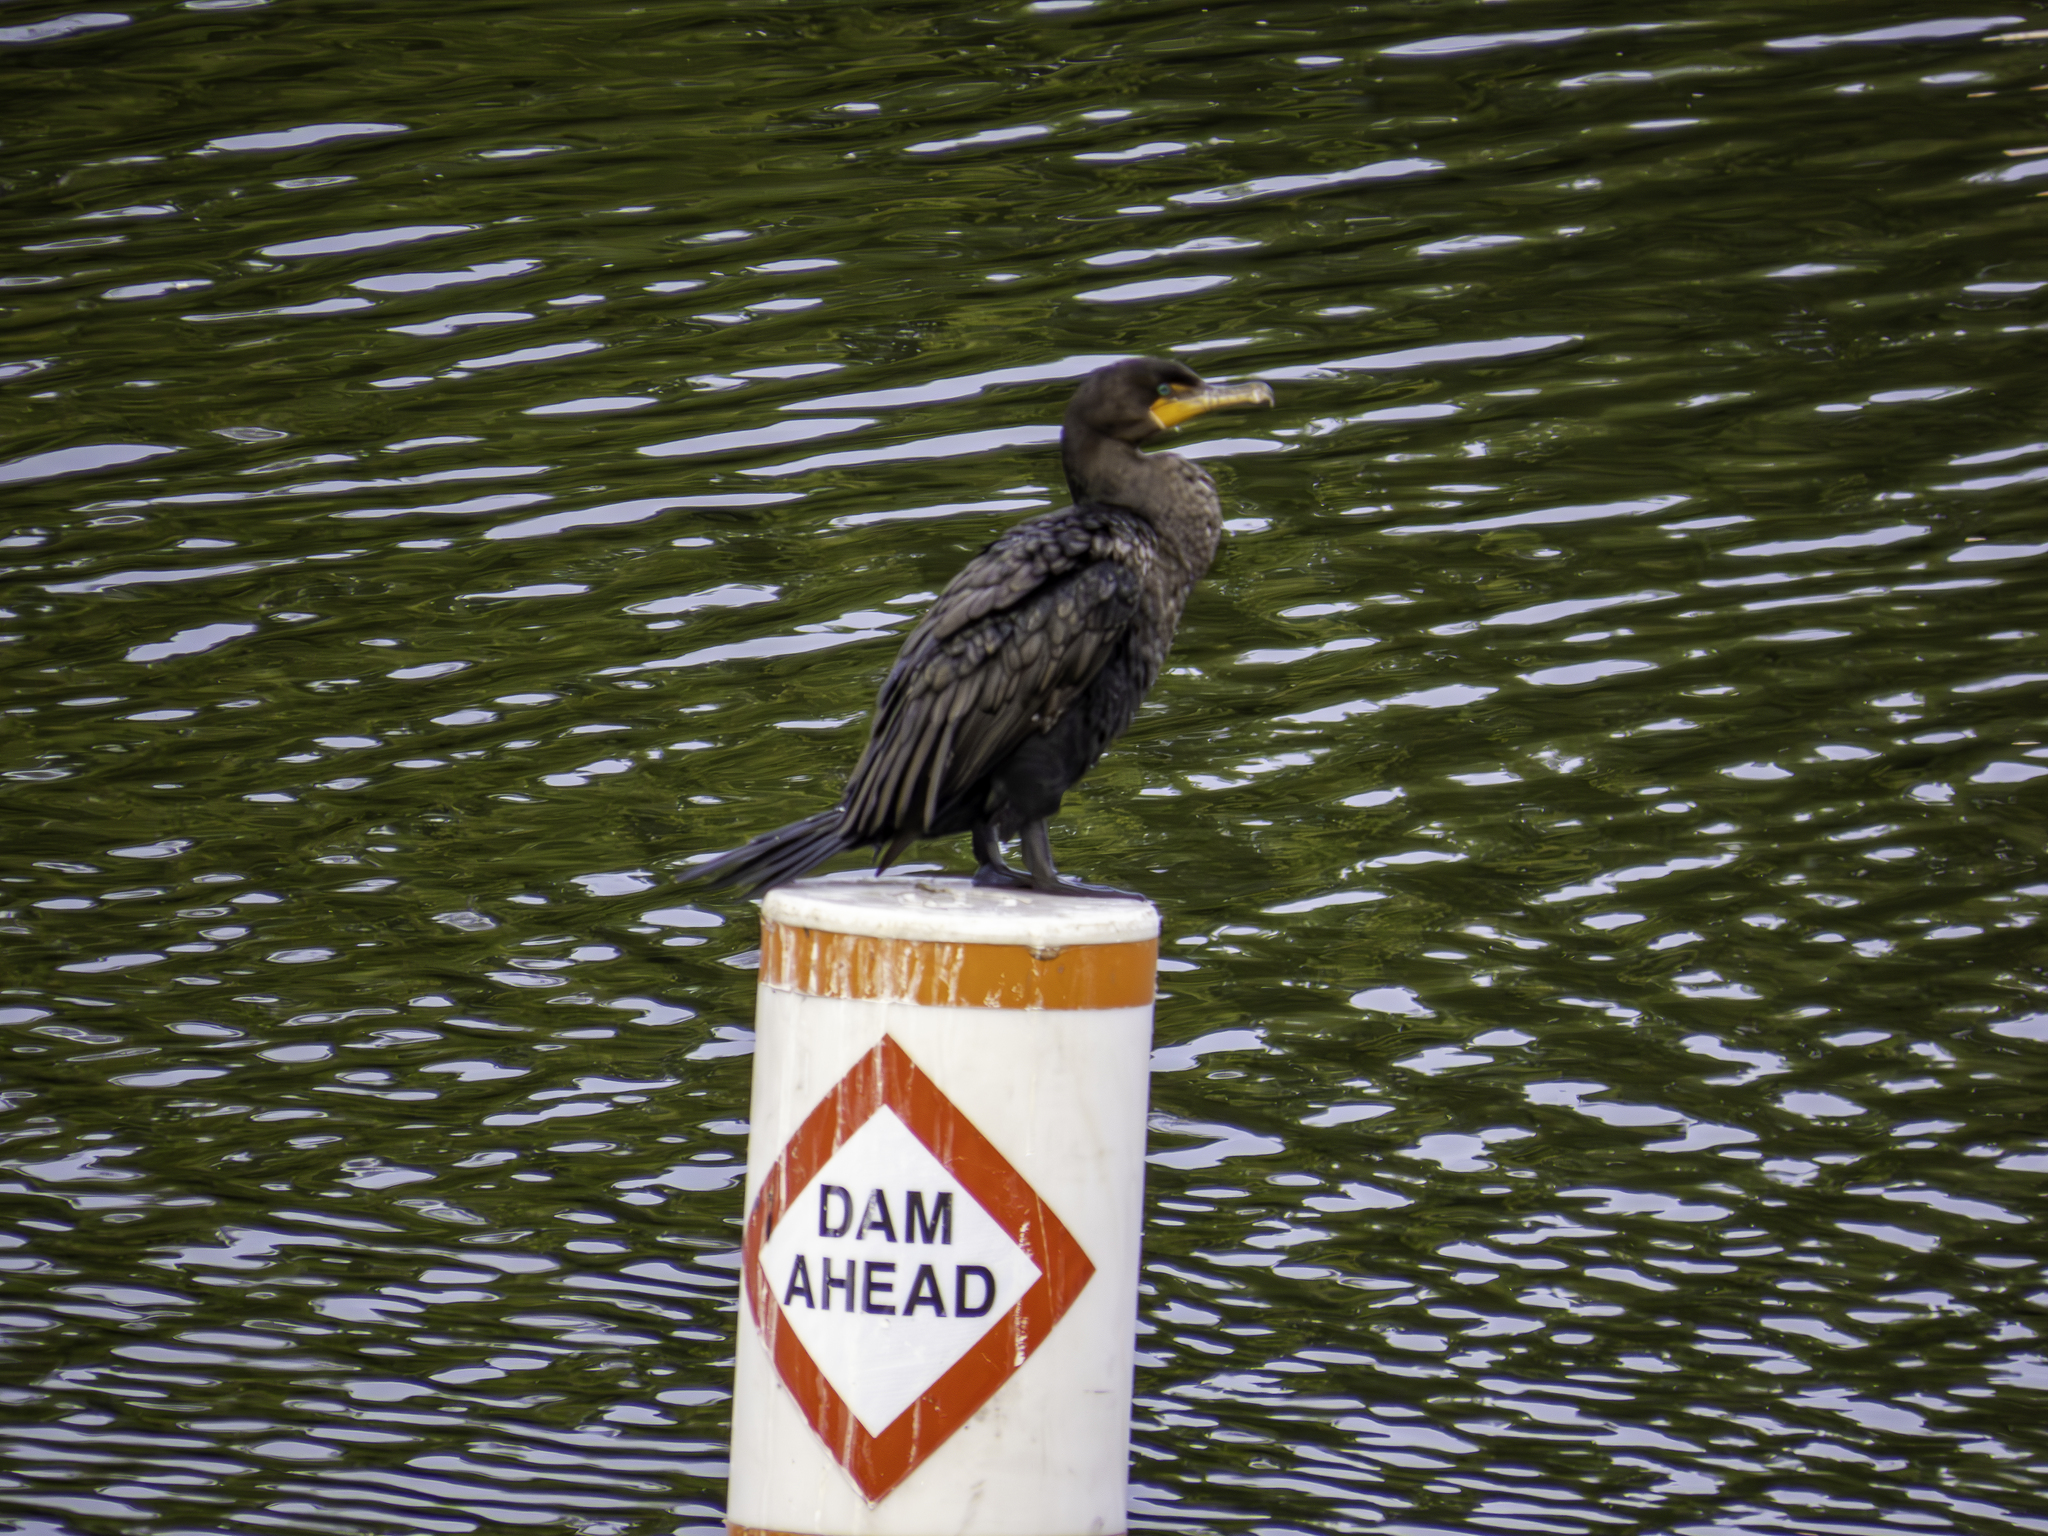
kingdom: Animalia
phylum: Chordata
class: Aves
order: Suliformes
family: Phalacrocoracidae
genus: Phalacrocorax
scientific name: Phalacrocorax auritus
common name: Double-crested cormorant
